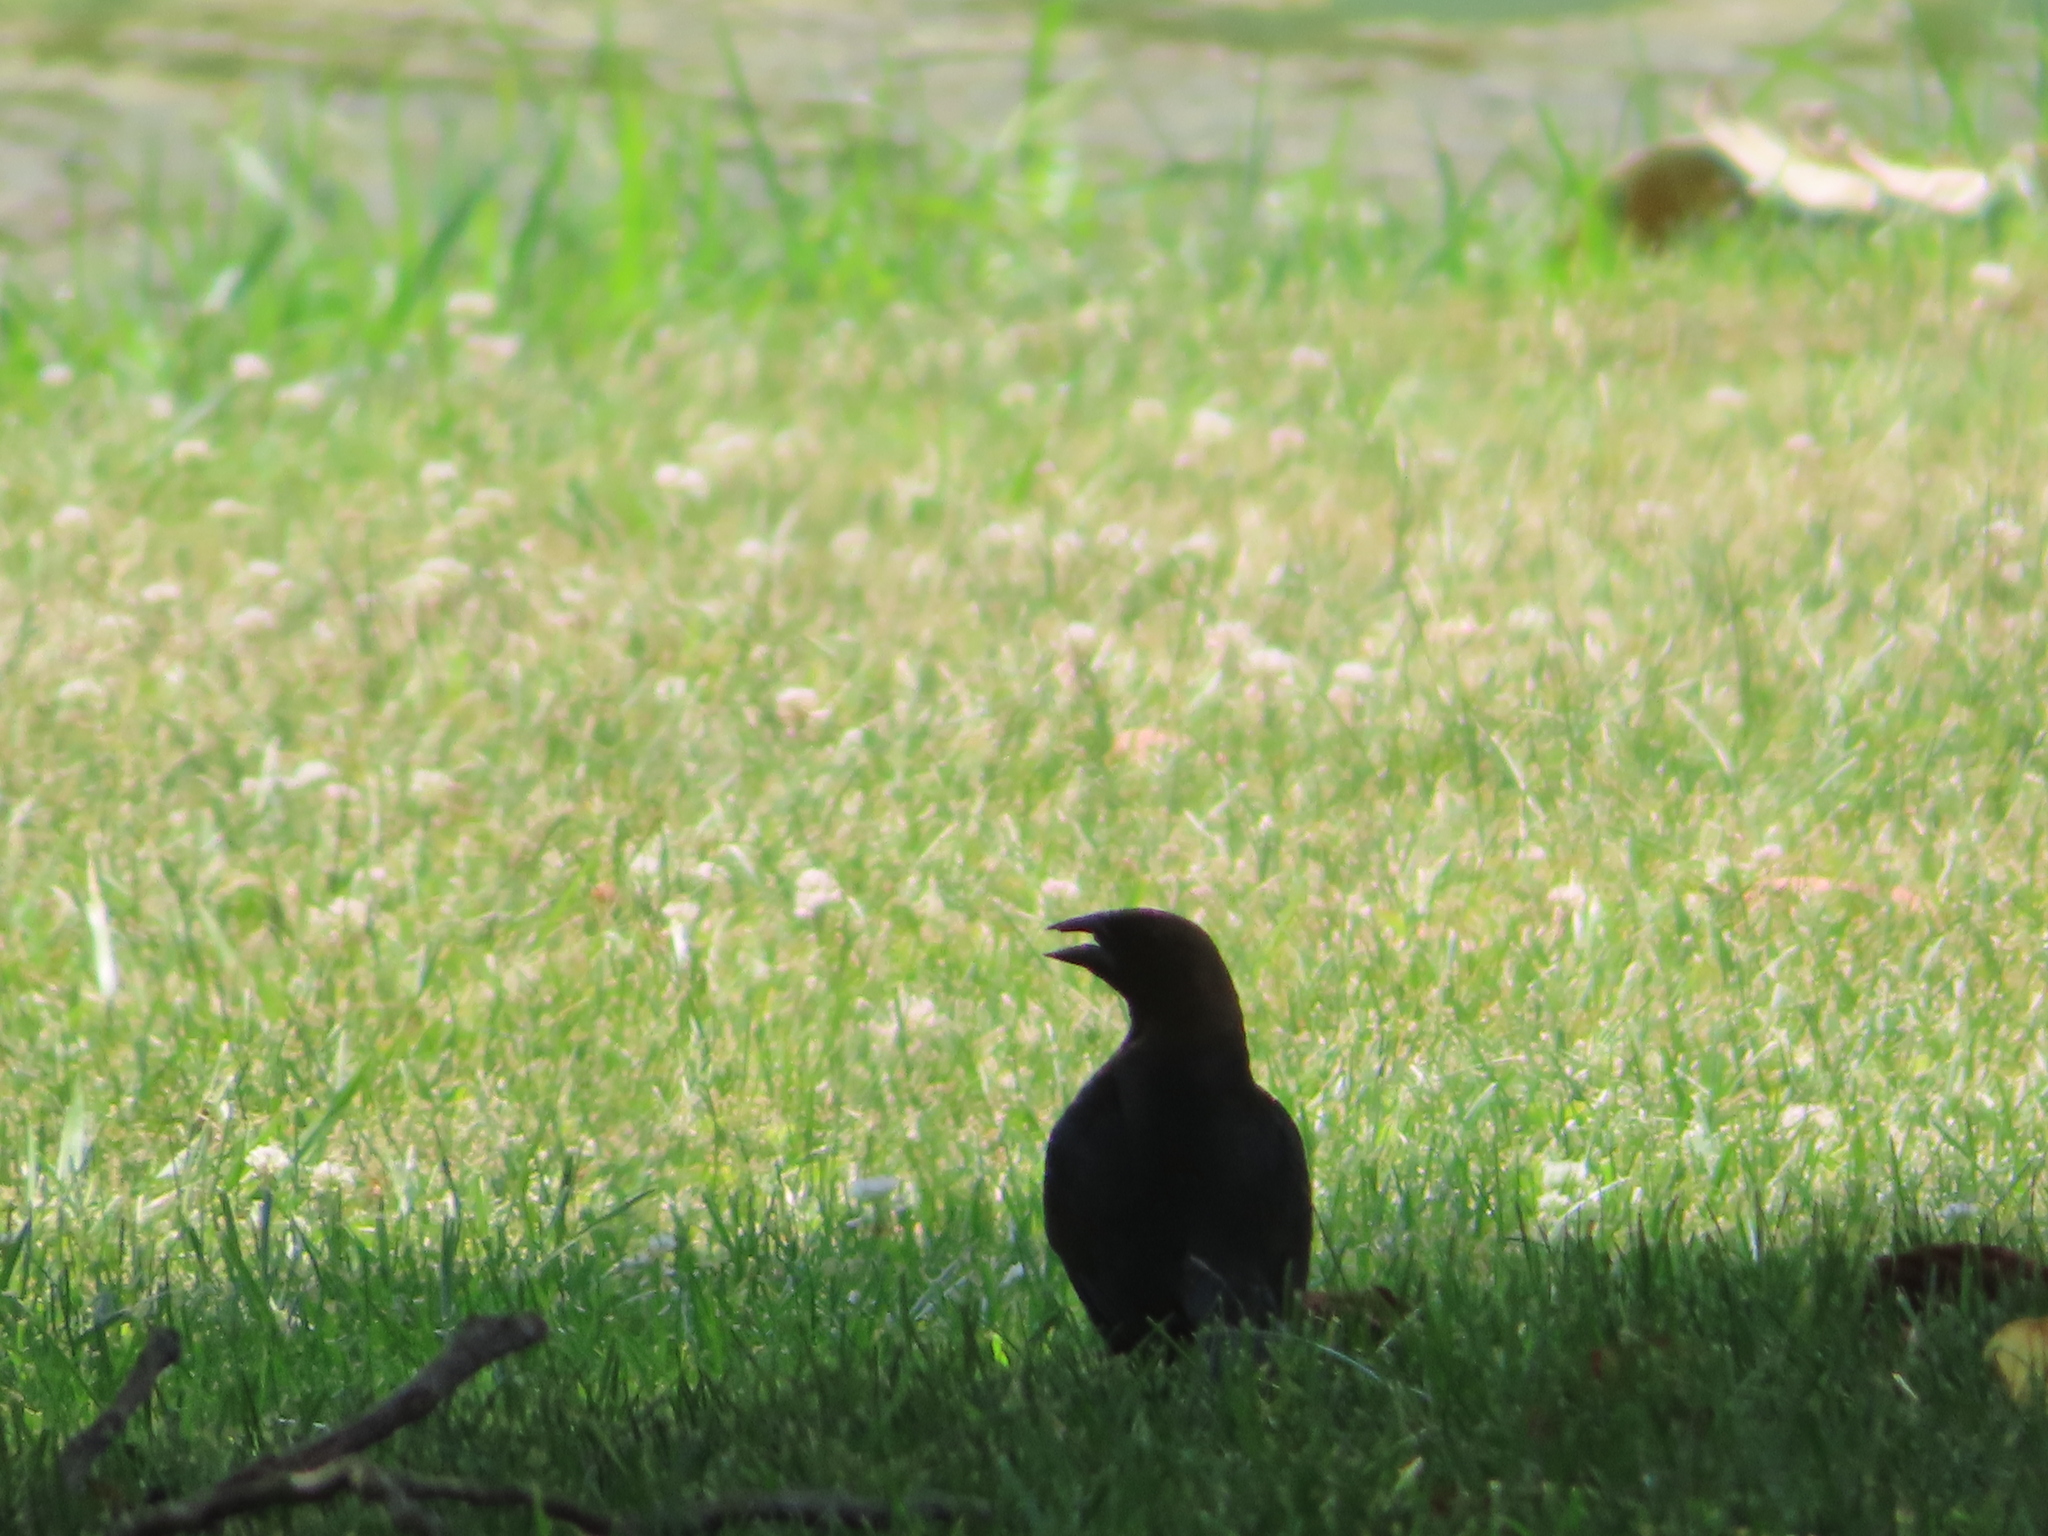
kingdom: Animalia
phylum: Chordata
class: Aves
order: Passeriformes
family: Icteridae
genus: Molothrus
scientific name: Molothrus ater
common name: Brown-headed cowbird
